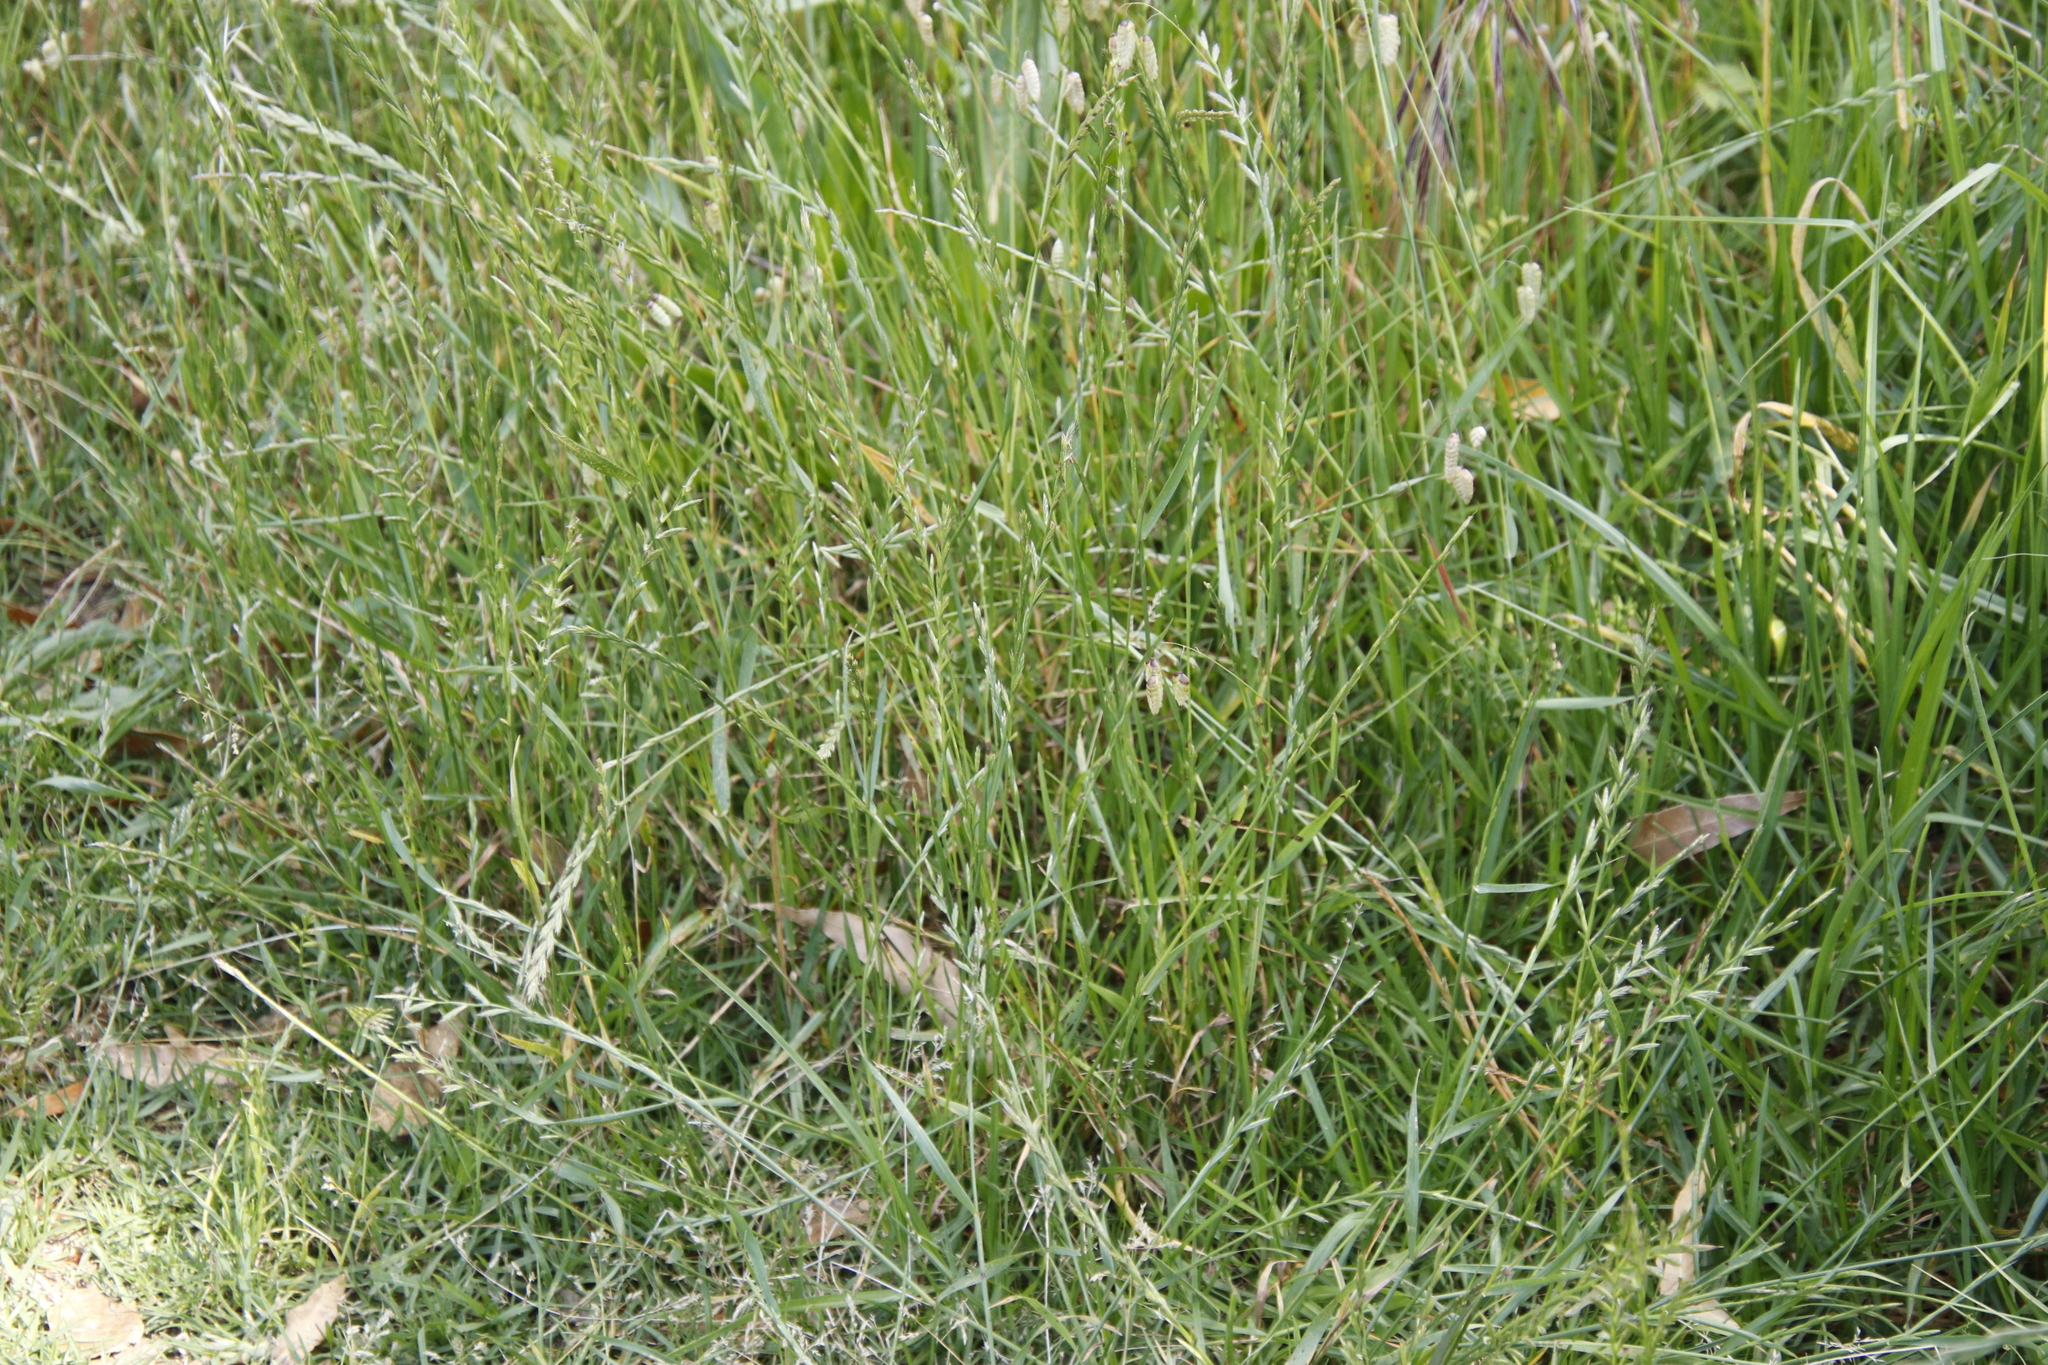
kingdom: Plantae
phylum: Tracheophyta
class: Liliopsida
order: Poales
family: Poaceae
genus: Lolium
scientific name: Lolium perenne
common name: Perennial ryegrass
